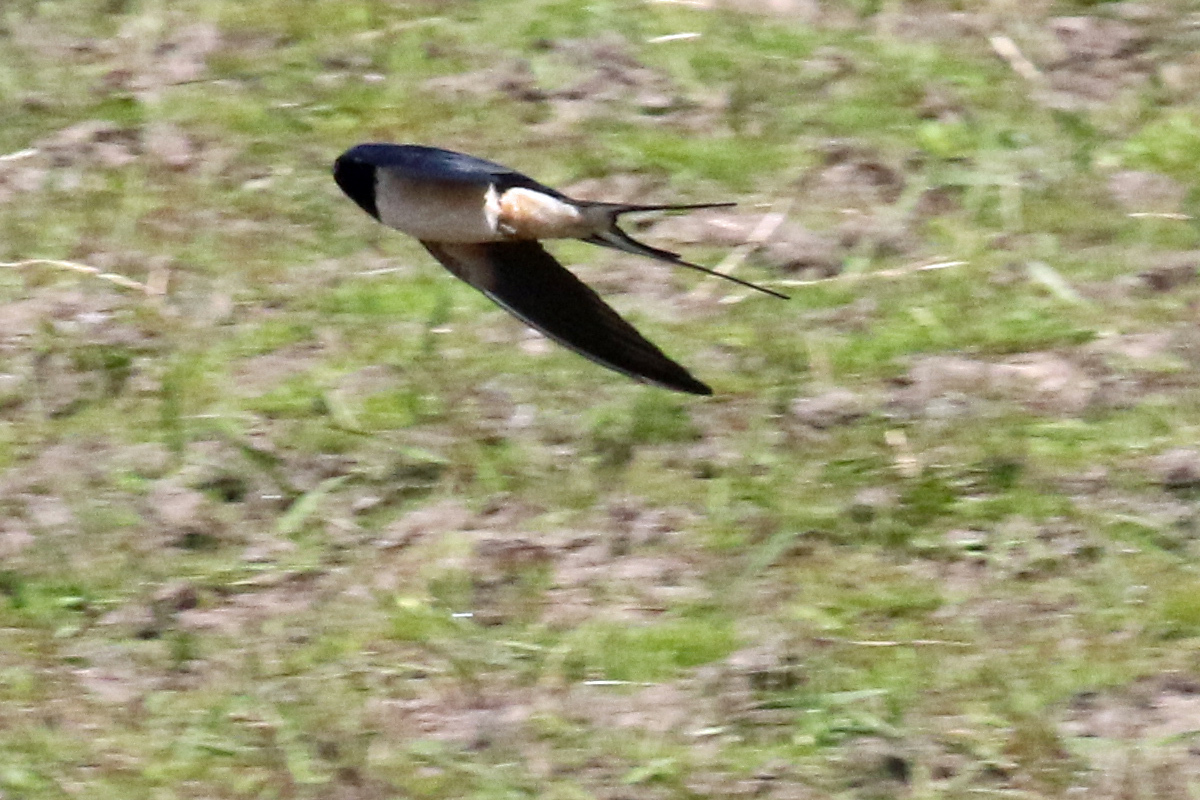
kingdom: Animalia
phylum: Chordata
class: Aves
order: Passeriformes
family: Hirundinidae
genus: Hirundo
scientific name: Hirundo rustica
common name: Barn swallow
